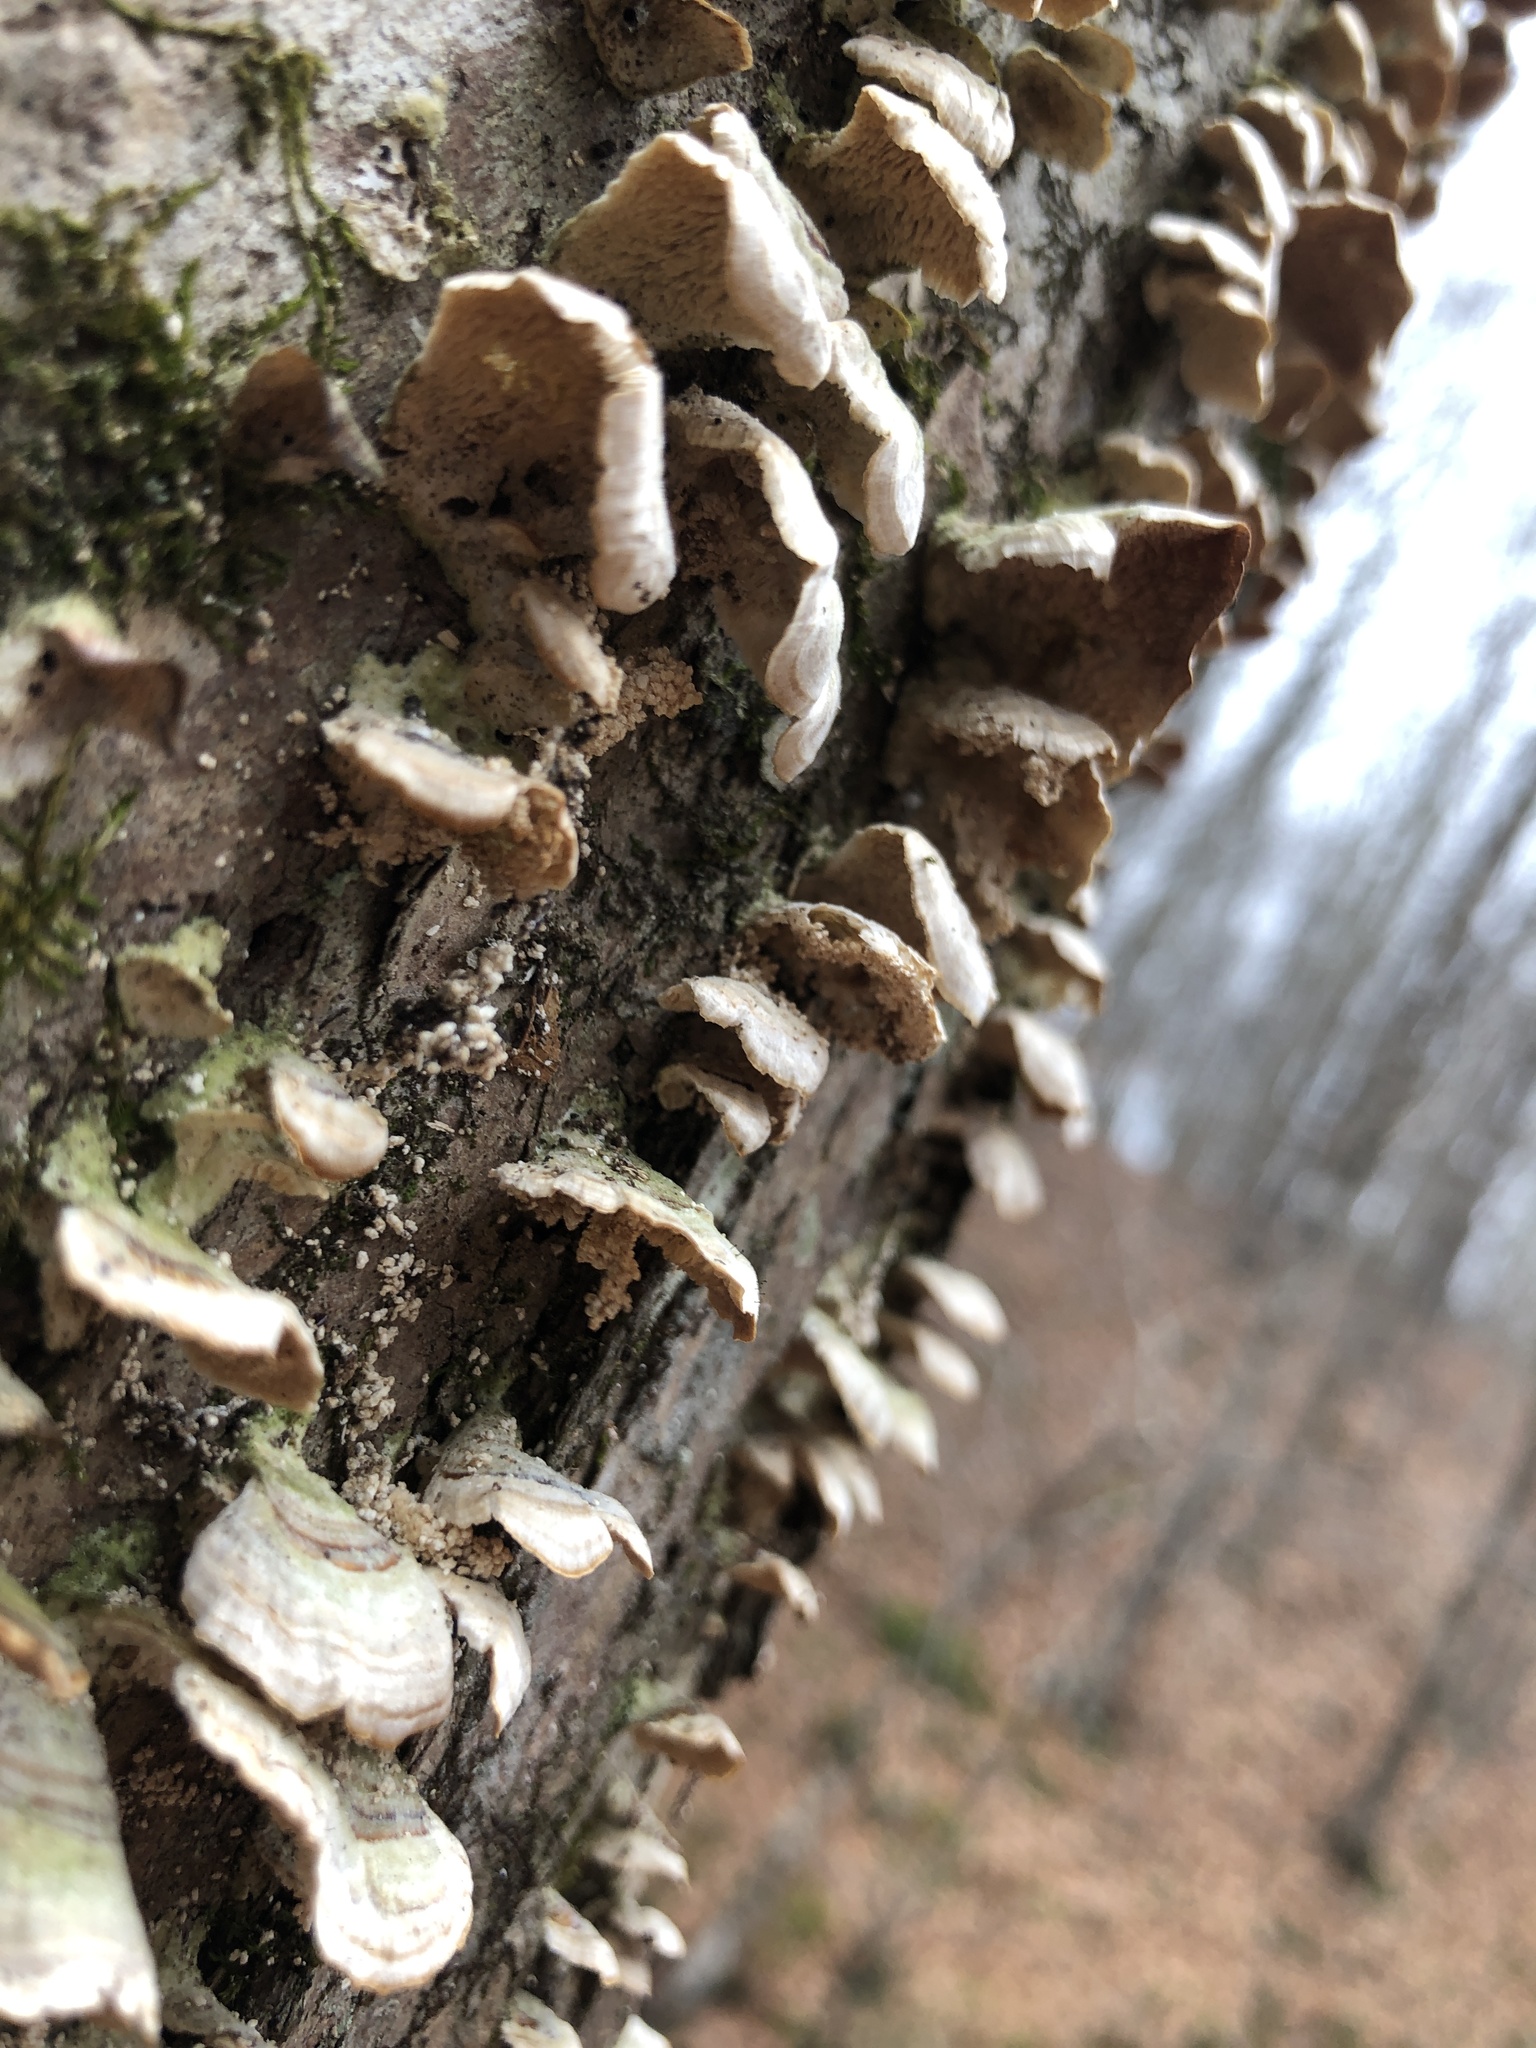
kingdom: Fungi
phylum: Basidiomycota
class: Agaricomycetes
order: Hymenochaetales
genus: Trichaptum
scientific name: Trichaptum biforme
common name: Violet-toothed polypore
